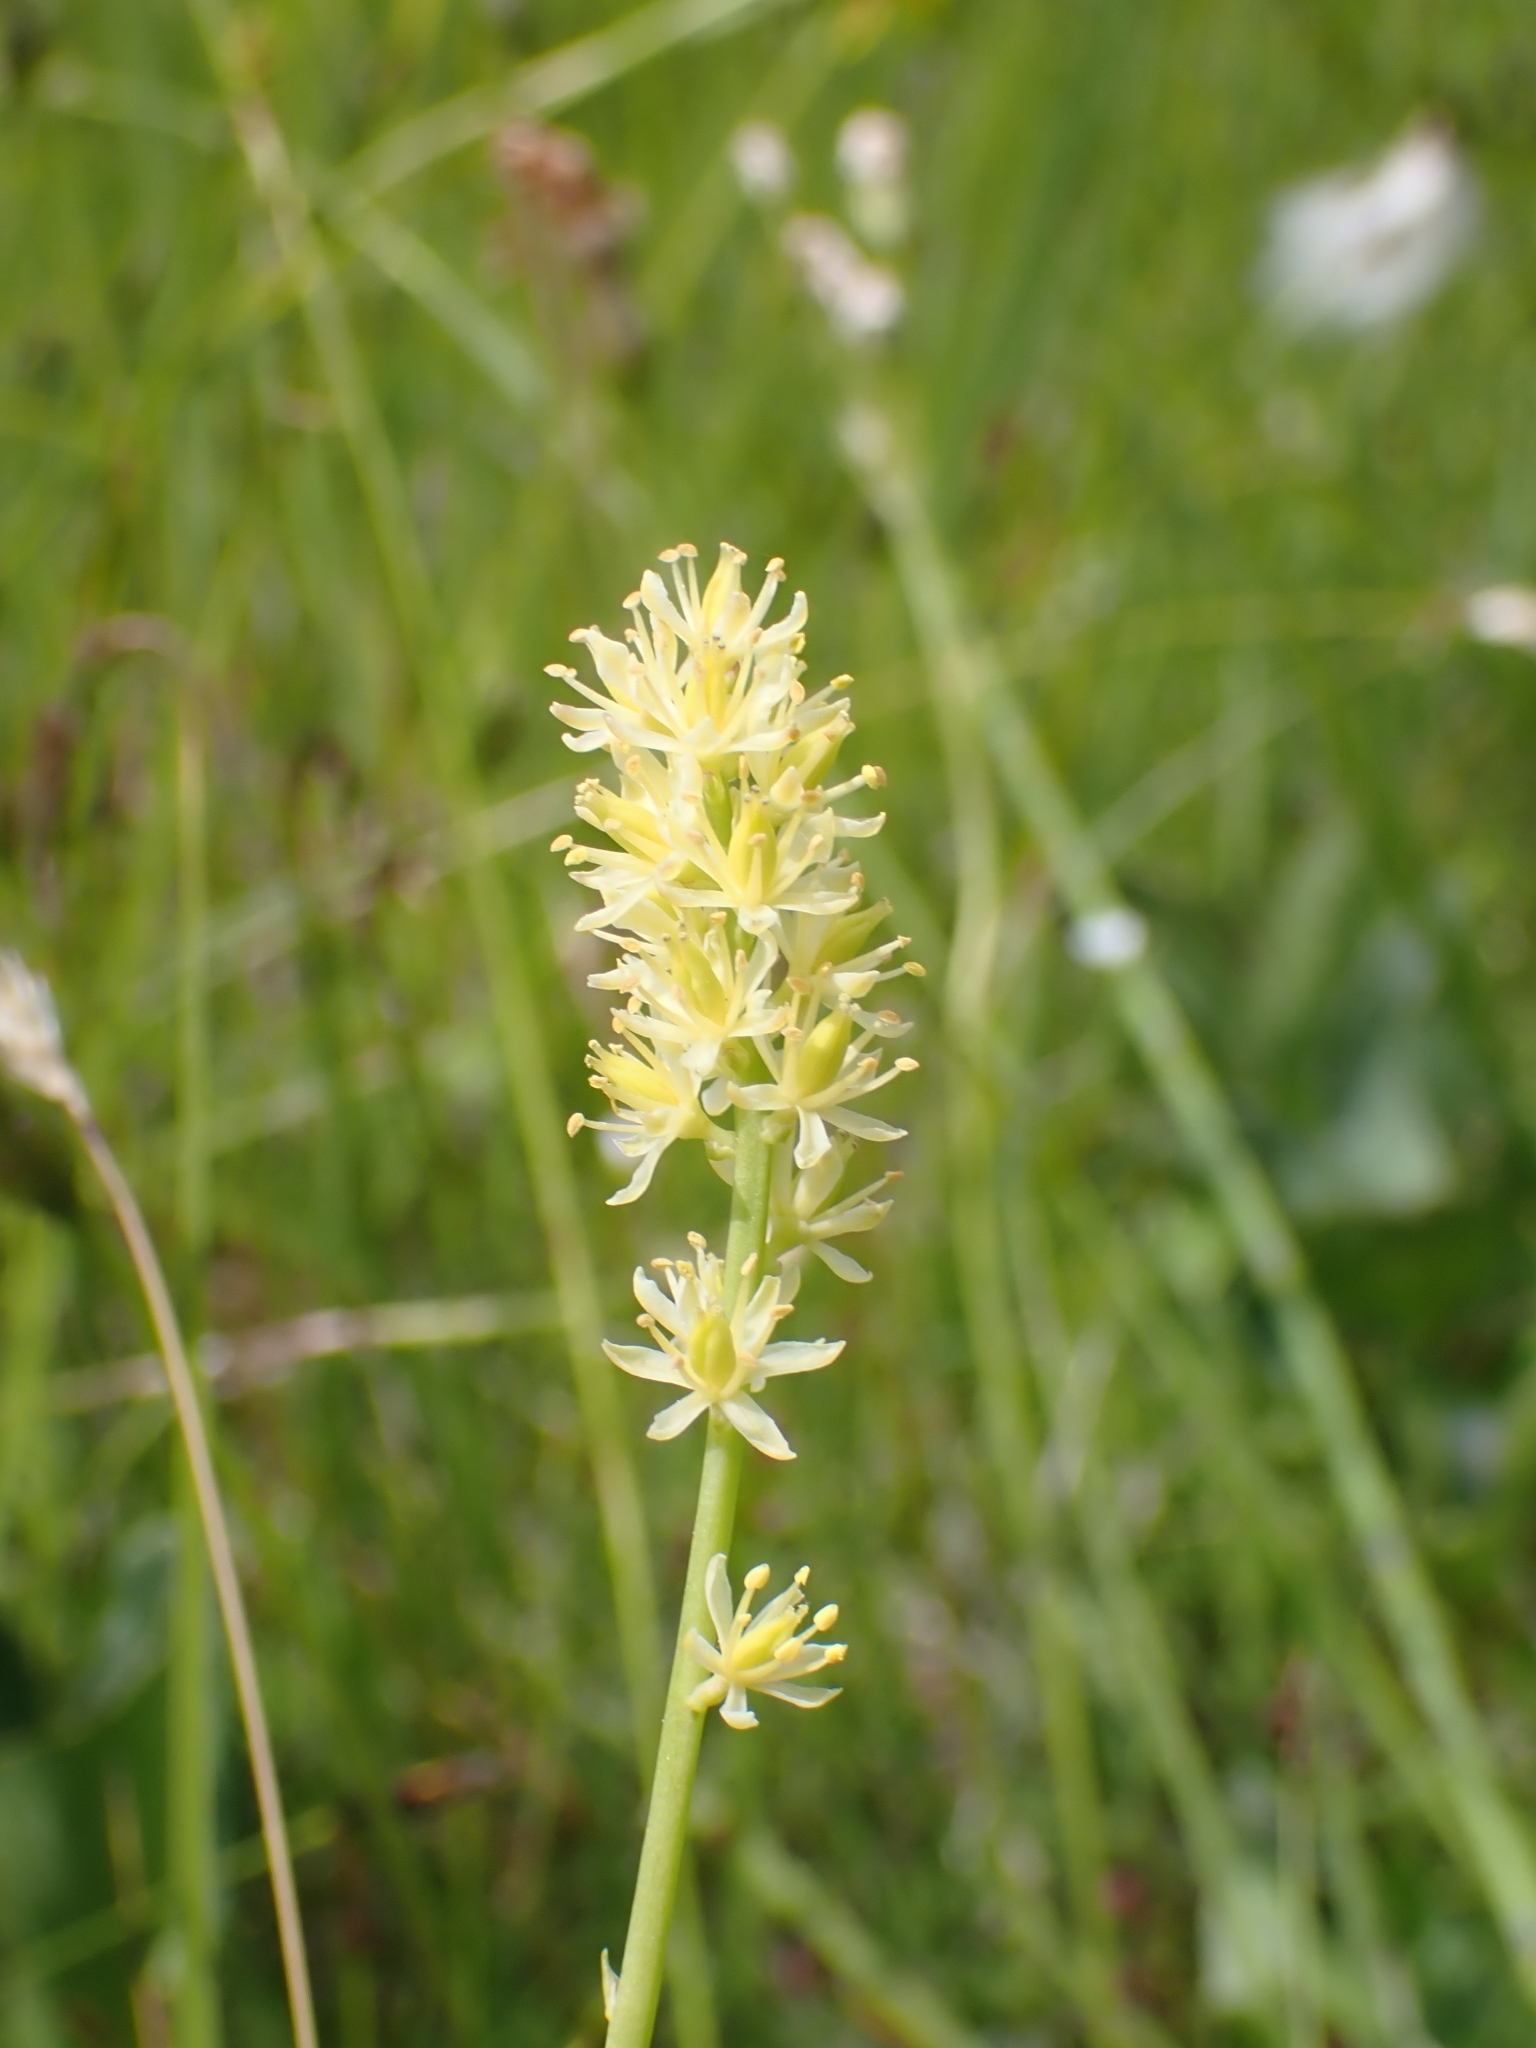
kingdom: Plantae
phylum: Tracheophyta
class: Liliopsida
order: Alismatales
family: Tofieldiaceae
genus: Tofieldia
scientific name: Tofieldia calyculata
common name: German-asphodel
